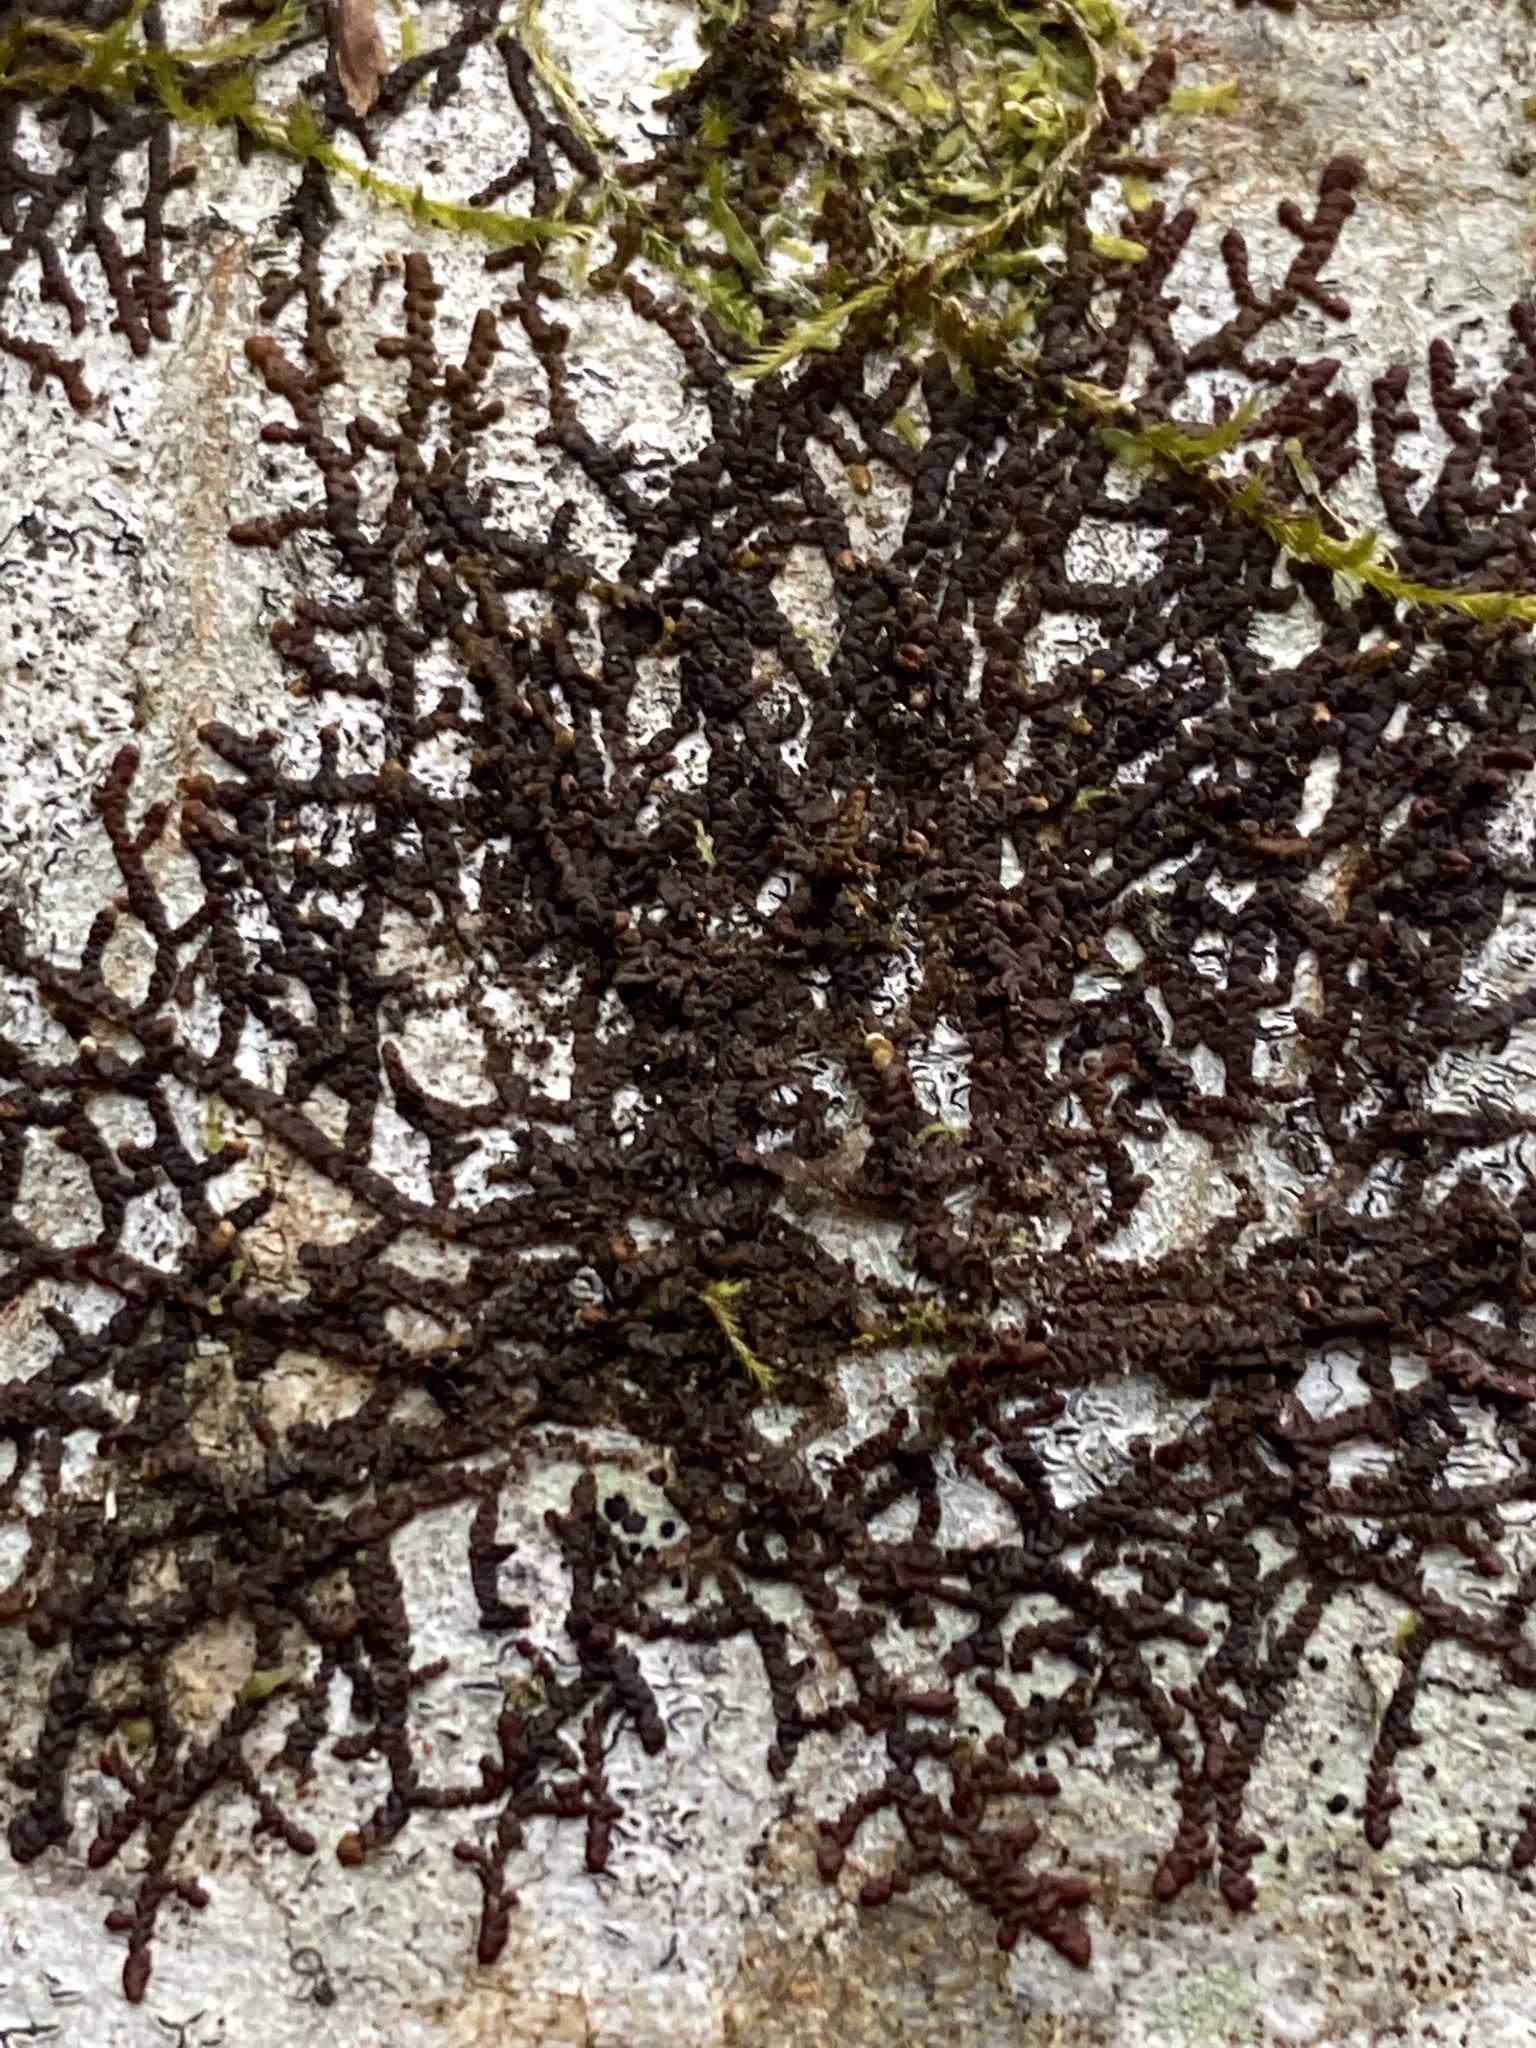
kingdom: Plantae
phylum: Marchantiophyta
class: Jungermanniopsida
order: Porellales
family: Frullaniaceae
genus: Frullania
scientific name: Frullania dilatata
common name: Dilated scalewort
